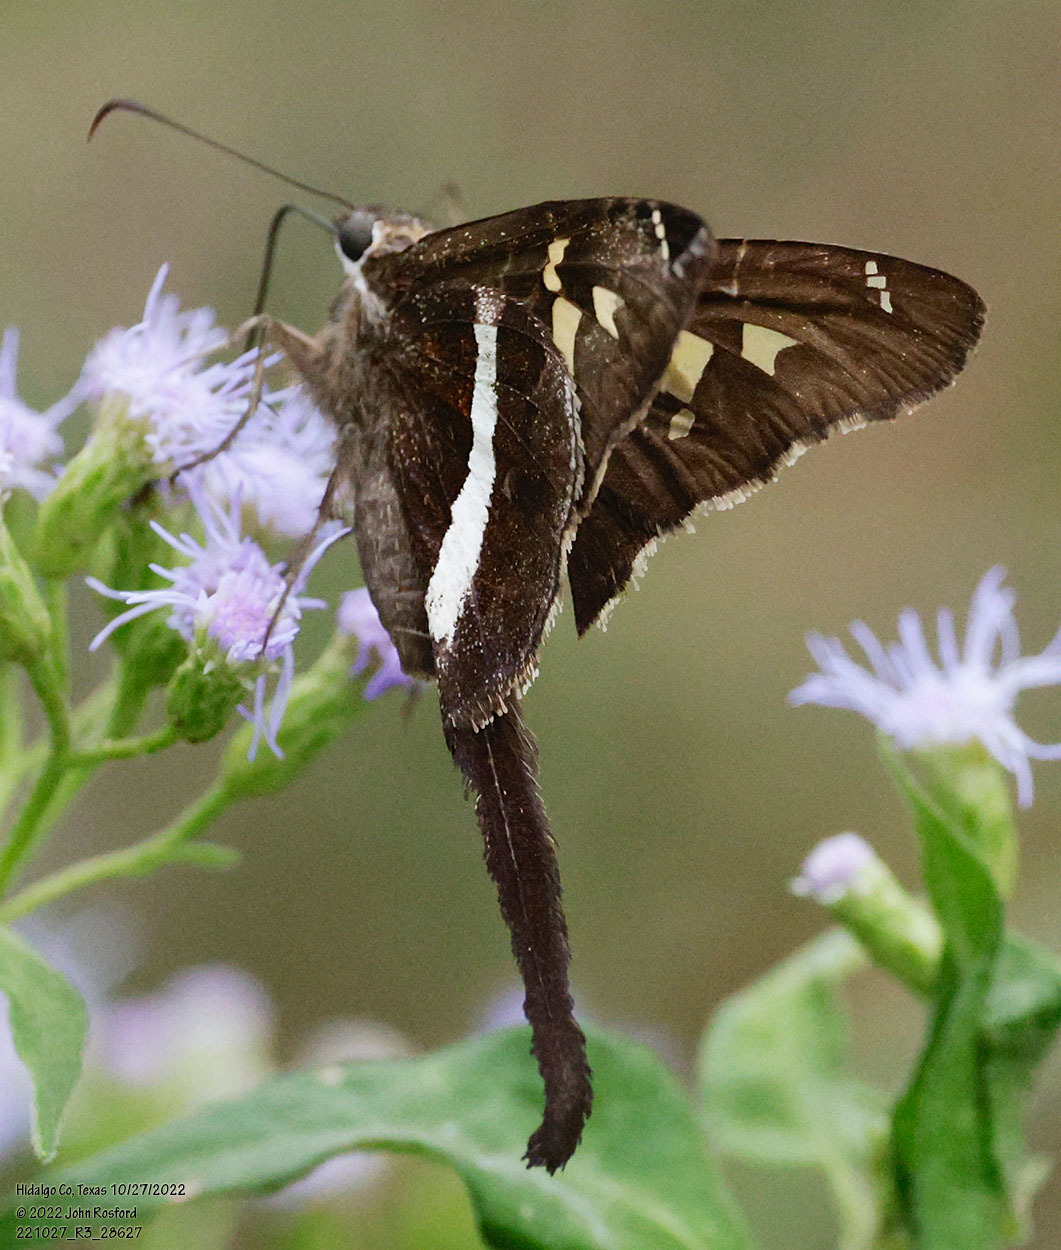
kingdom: Animalia
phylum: Arthropoda
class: Insecta
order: Lepidoptera
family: Hesperiidae
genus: Chioides
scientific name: Chioides catillus
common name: Silverbanded skipper
